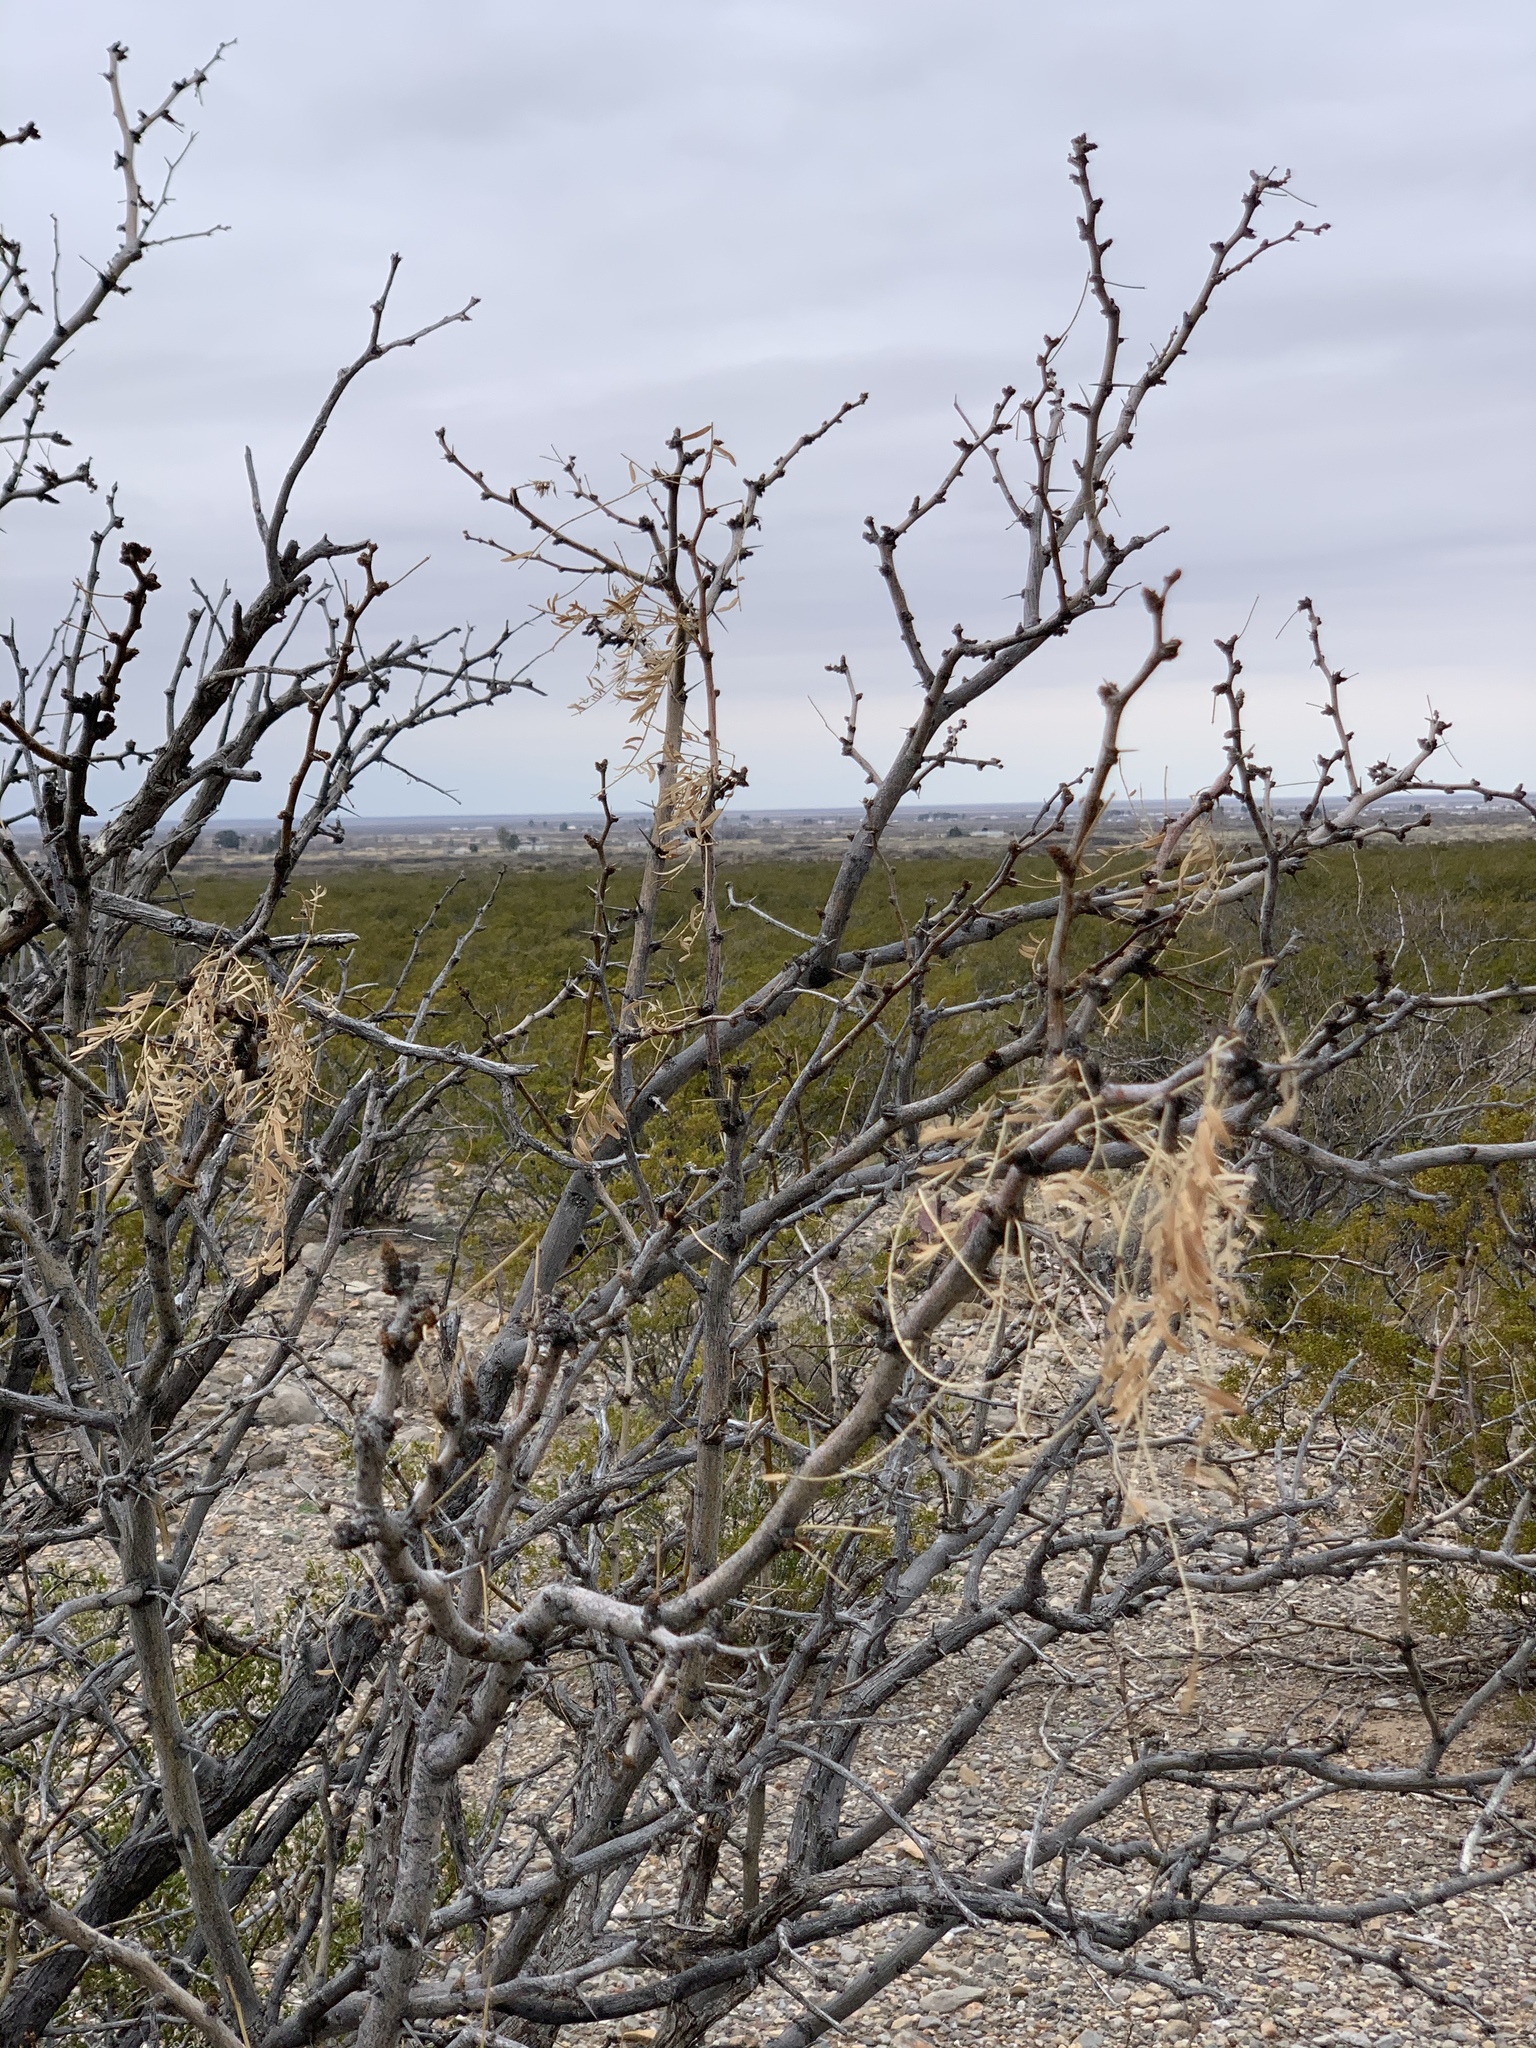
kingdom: Plantae
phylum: Tracheophyta
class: Magnoliopsida
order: Fabales
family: Fabaceae
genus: Prosopis
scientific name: Prosopis glandulosa
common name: Honey mesquite
